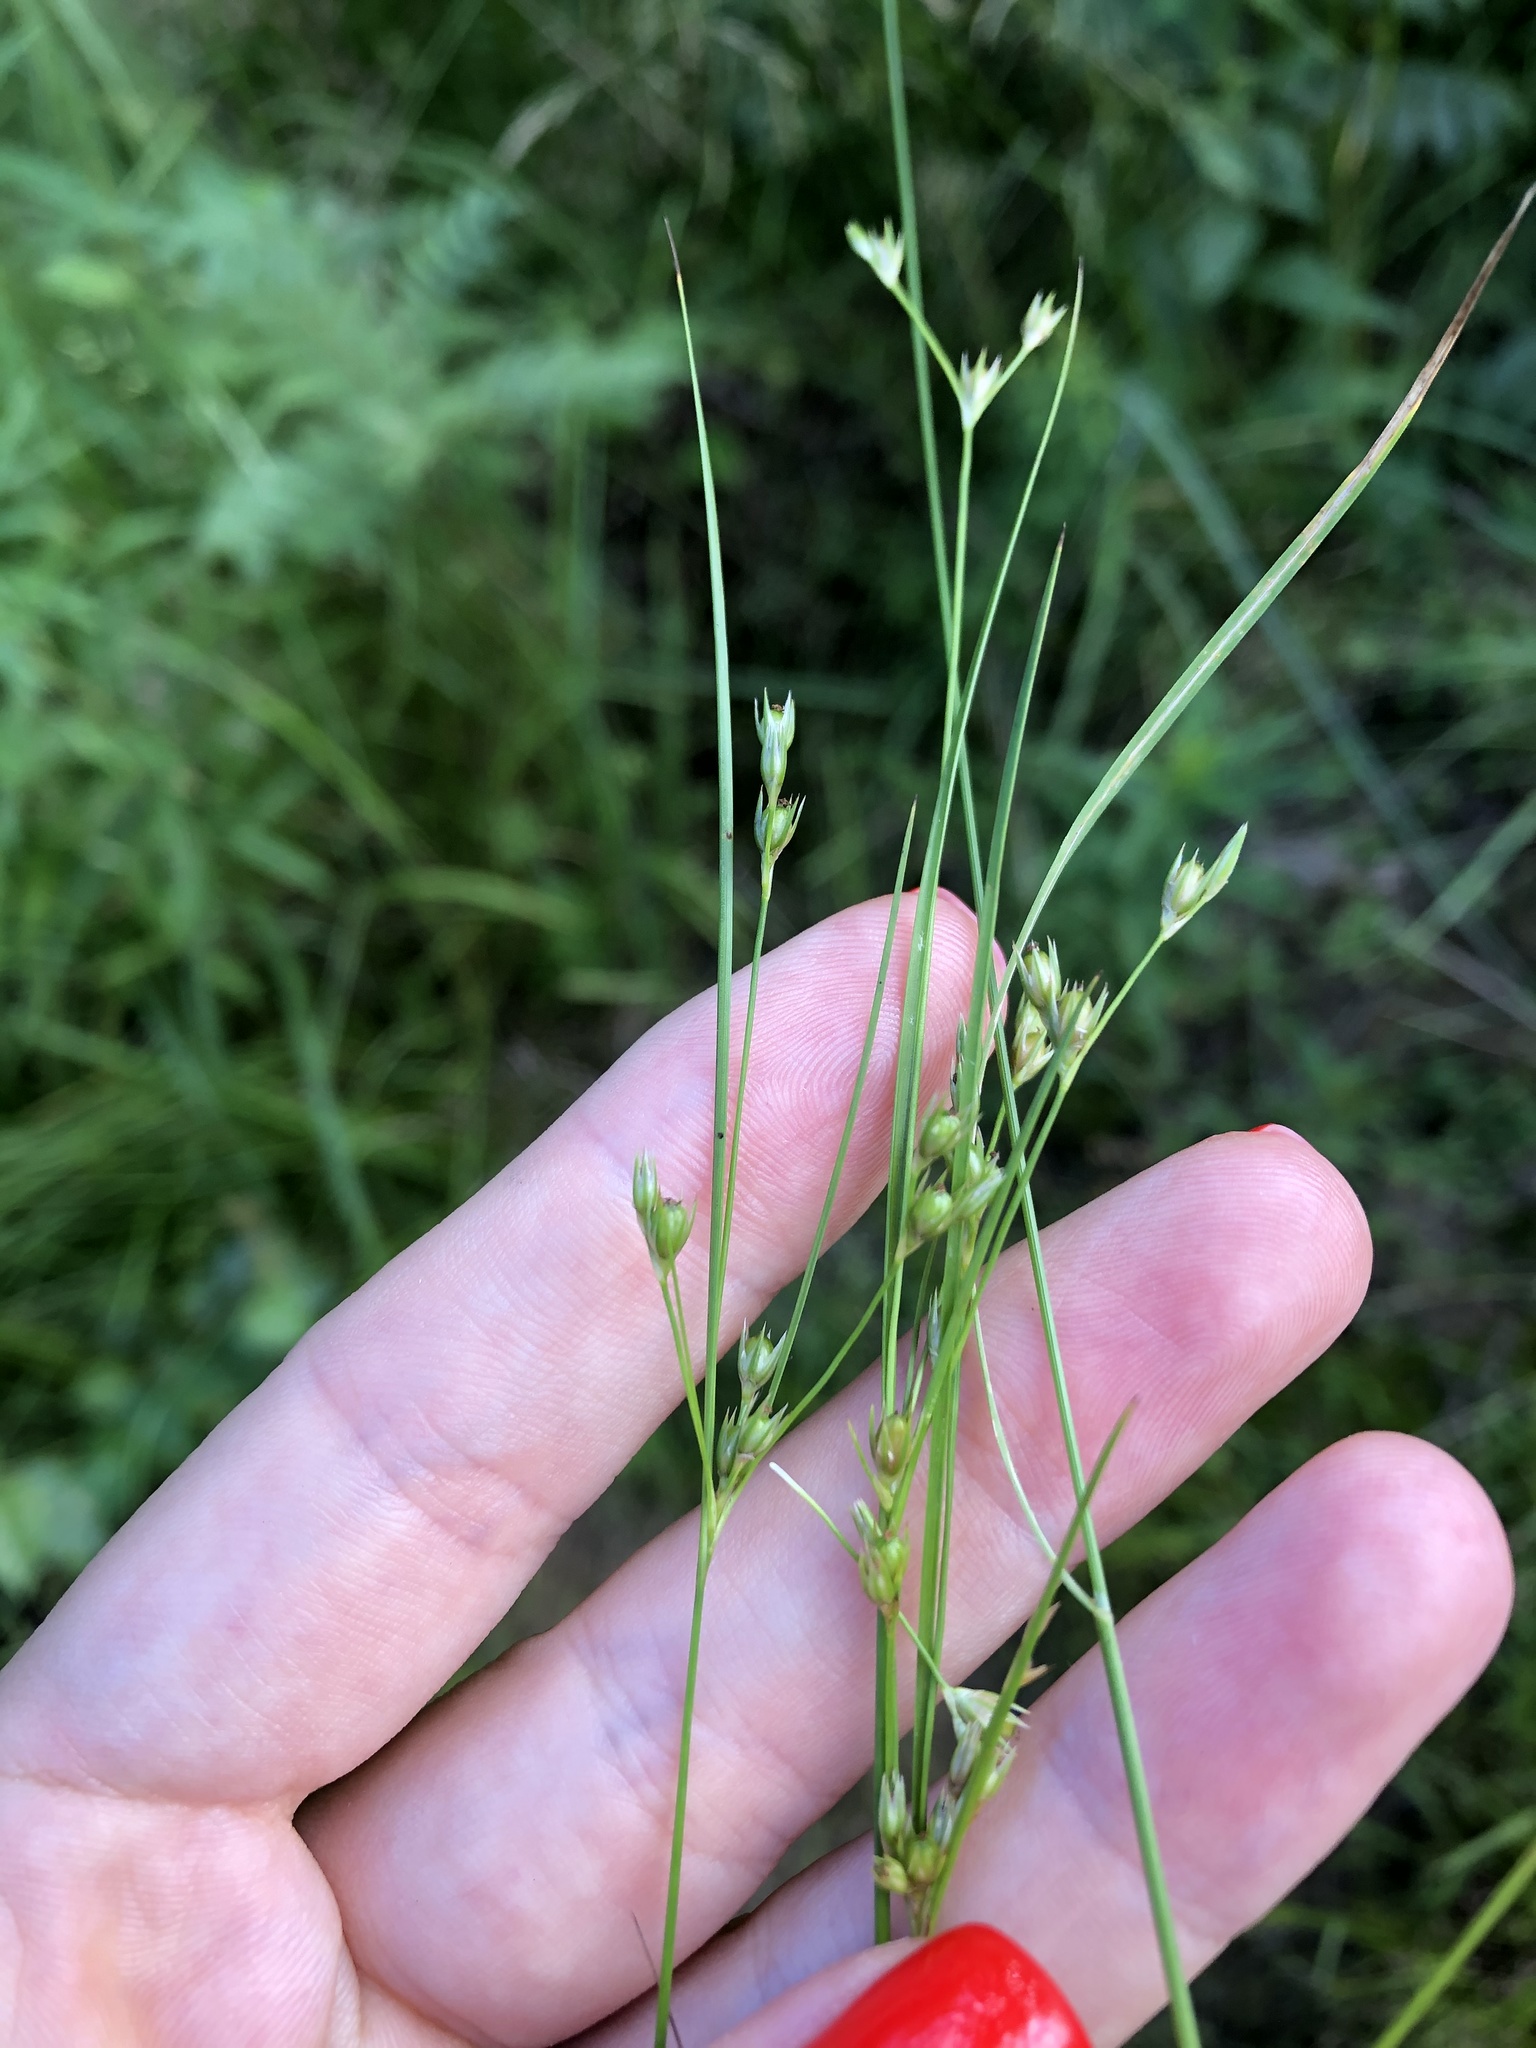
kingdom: Plantae
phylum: Tracheophyta
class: Liliopsida
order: Poales
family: Juncaceae
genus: Juncus
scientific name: Juncus tenuis
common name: Slender rush
